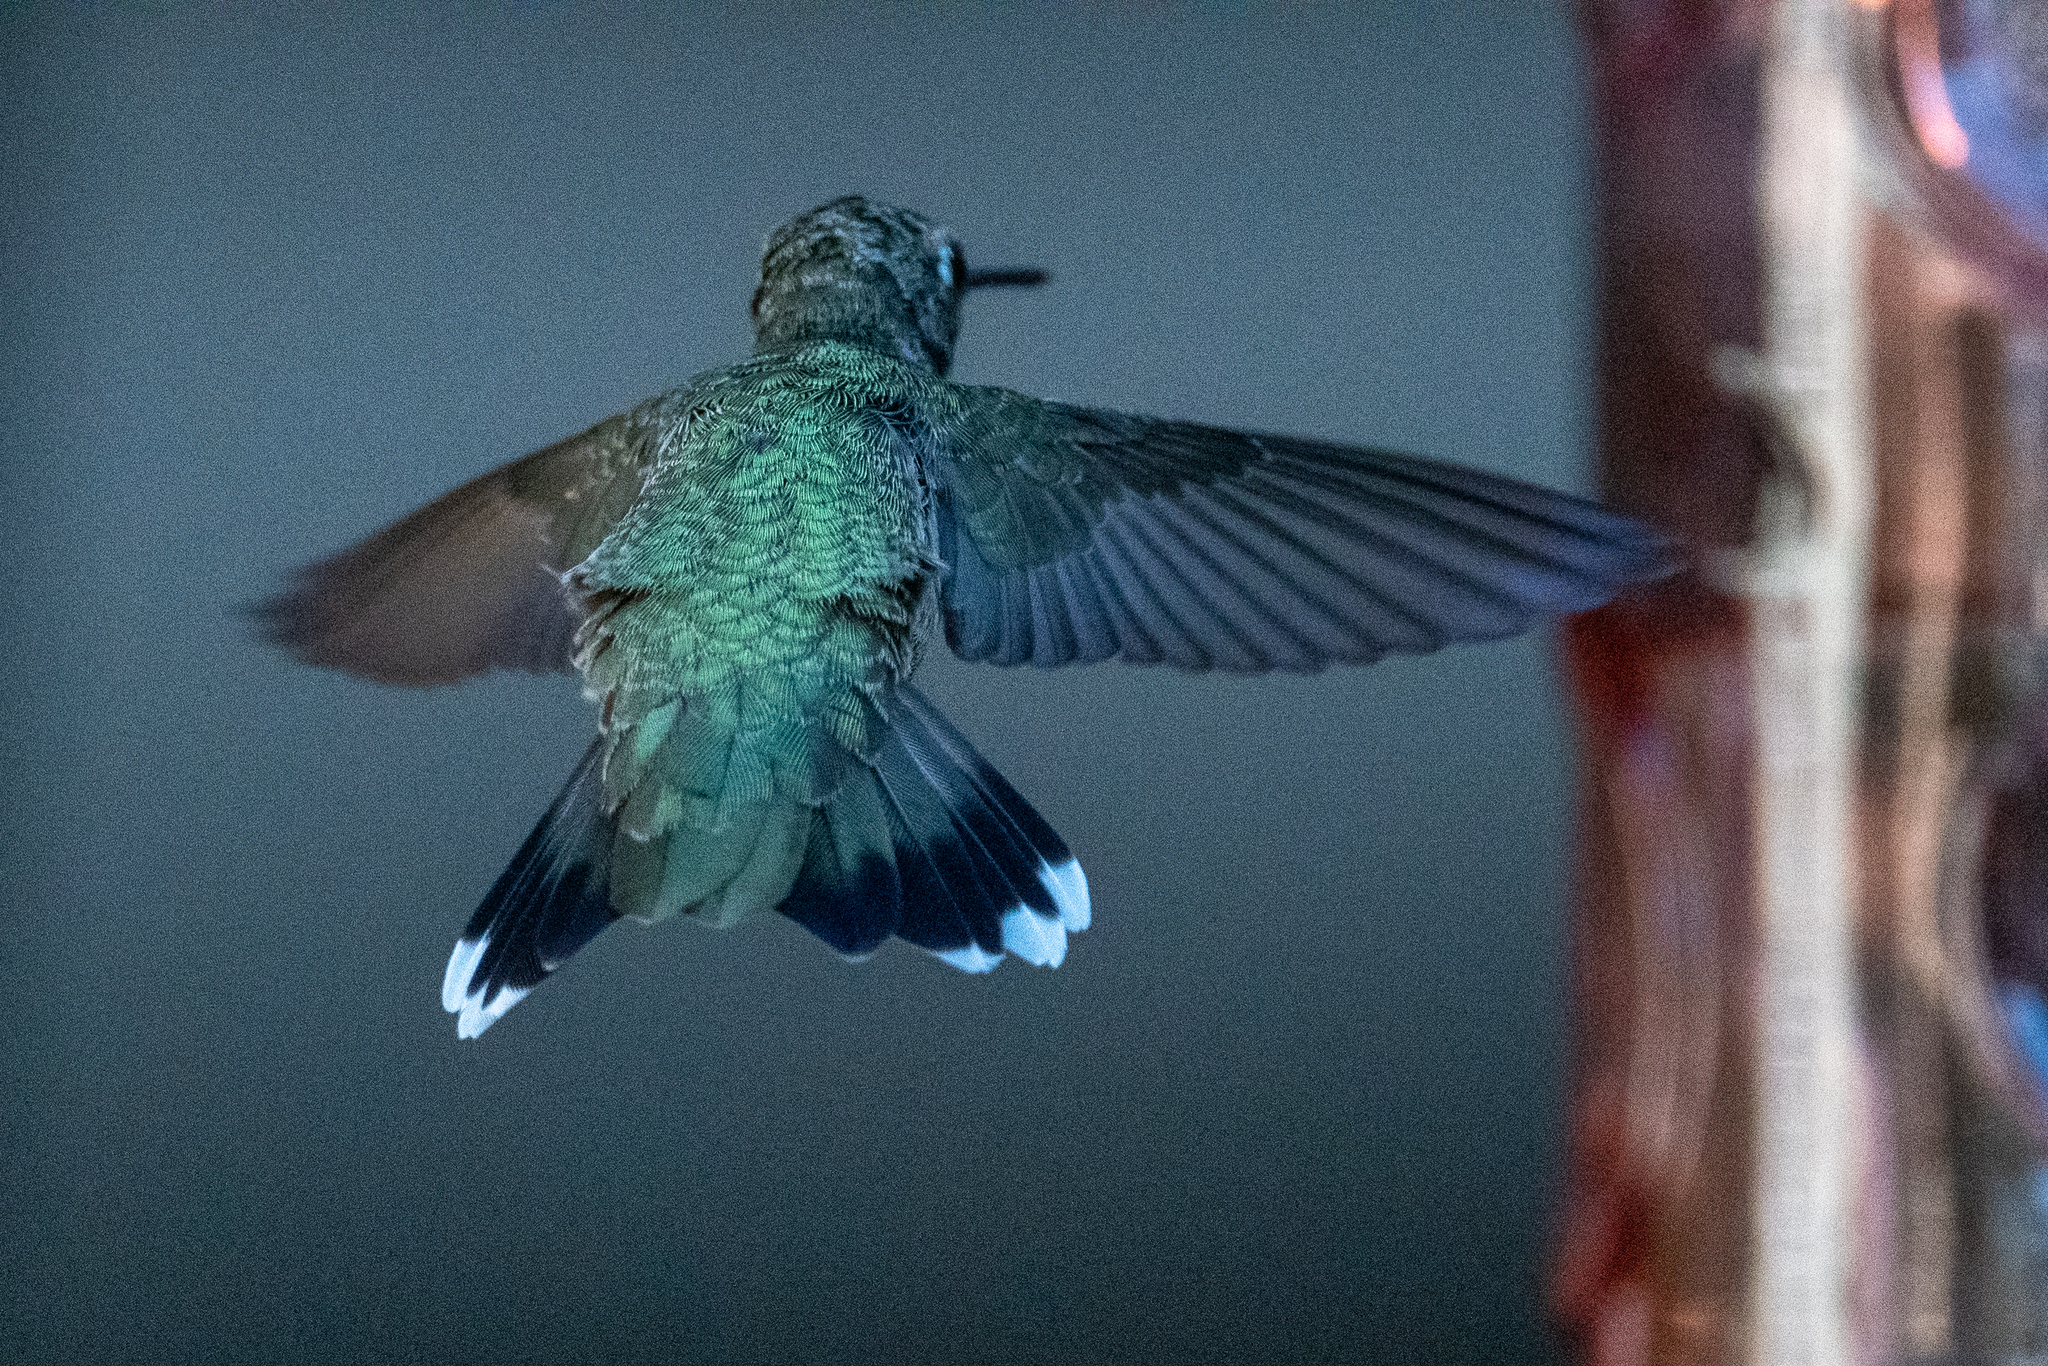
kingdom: Animalia
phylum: Chordata
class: Aves
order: Apodiformes
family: Trochilidae
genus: Archilochus
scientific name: Archilochus alexandri
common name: Black-chinned hummingbird
